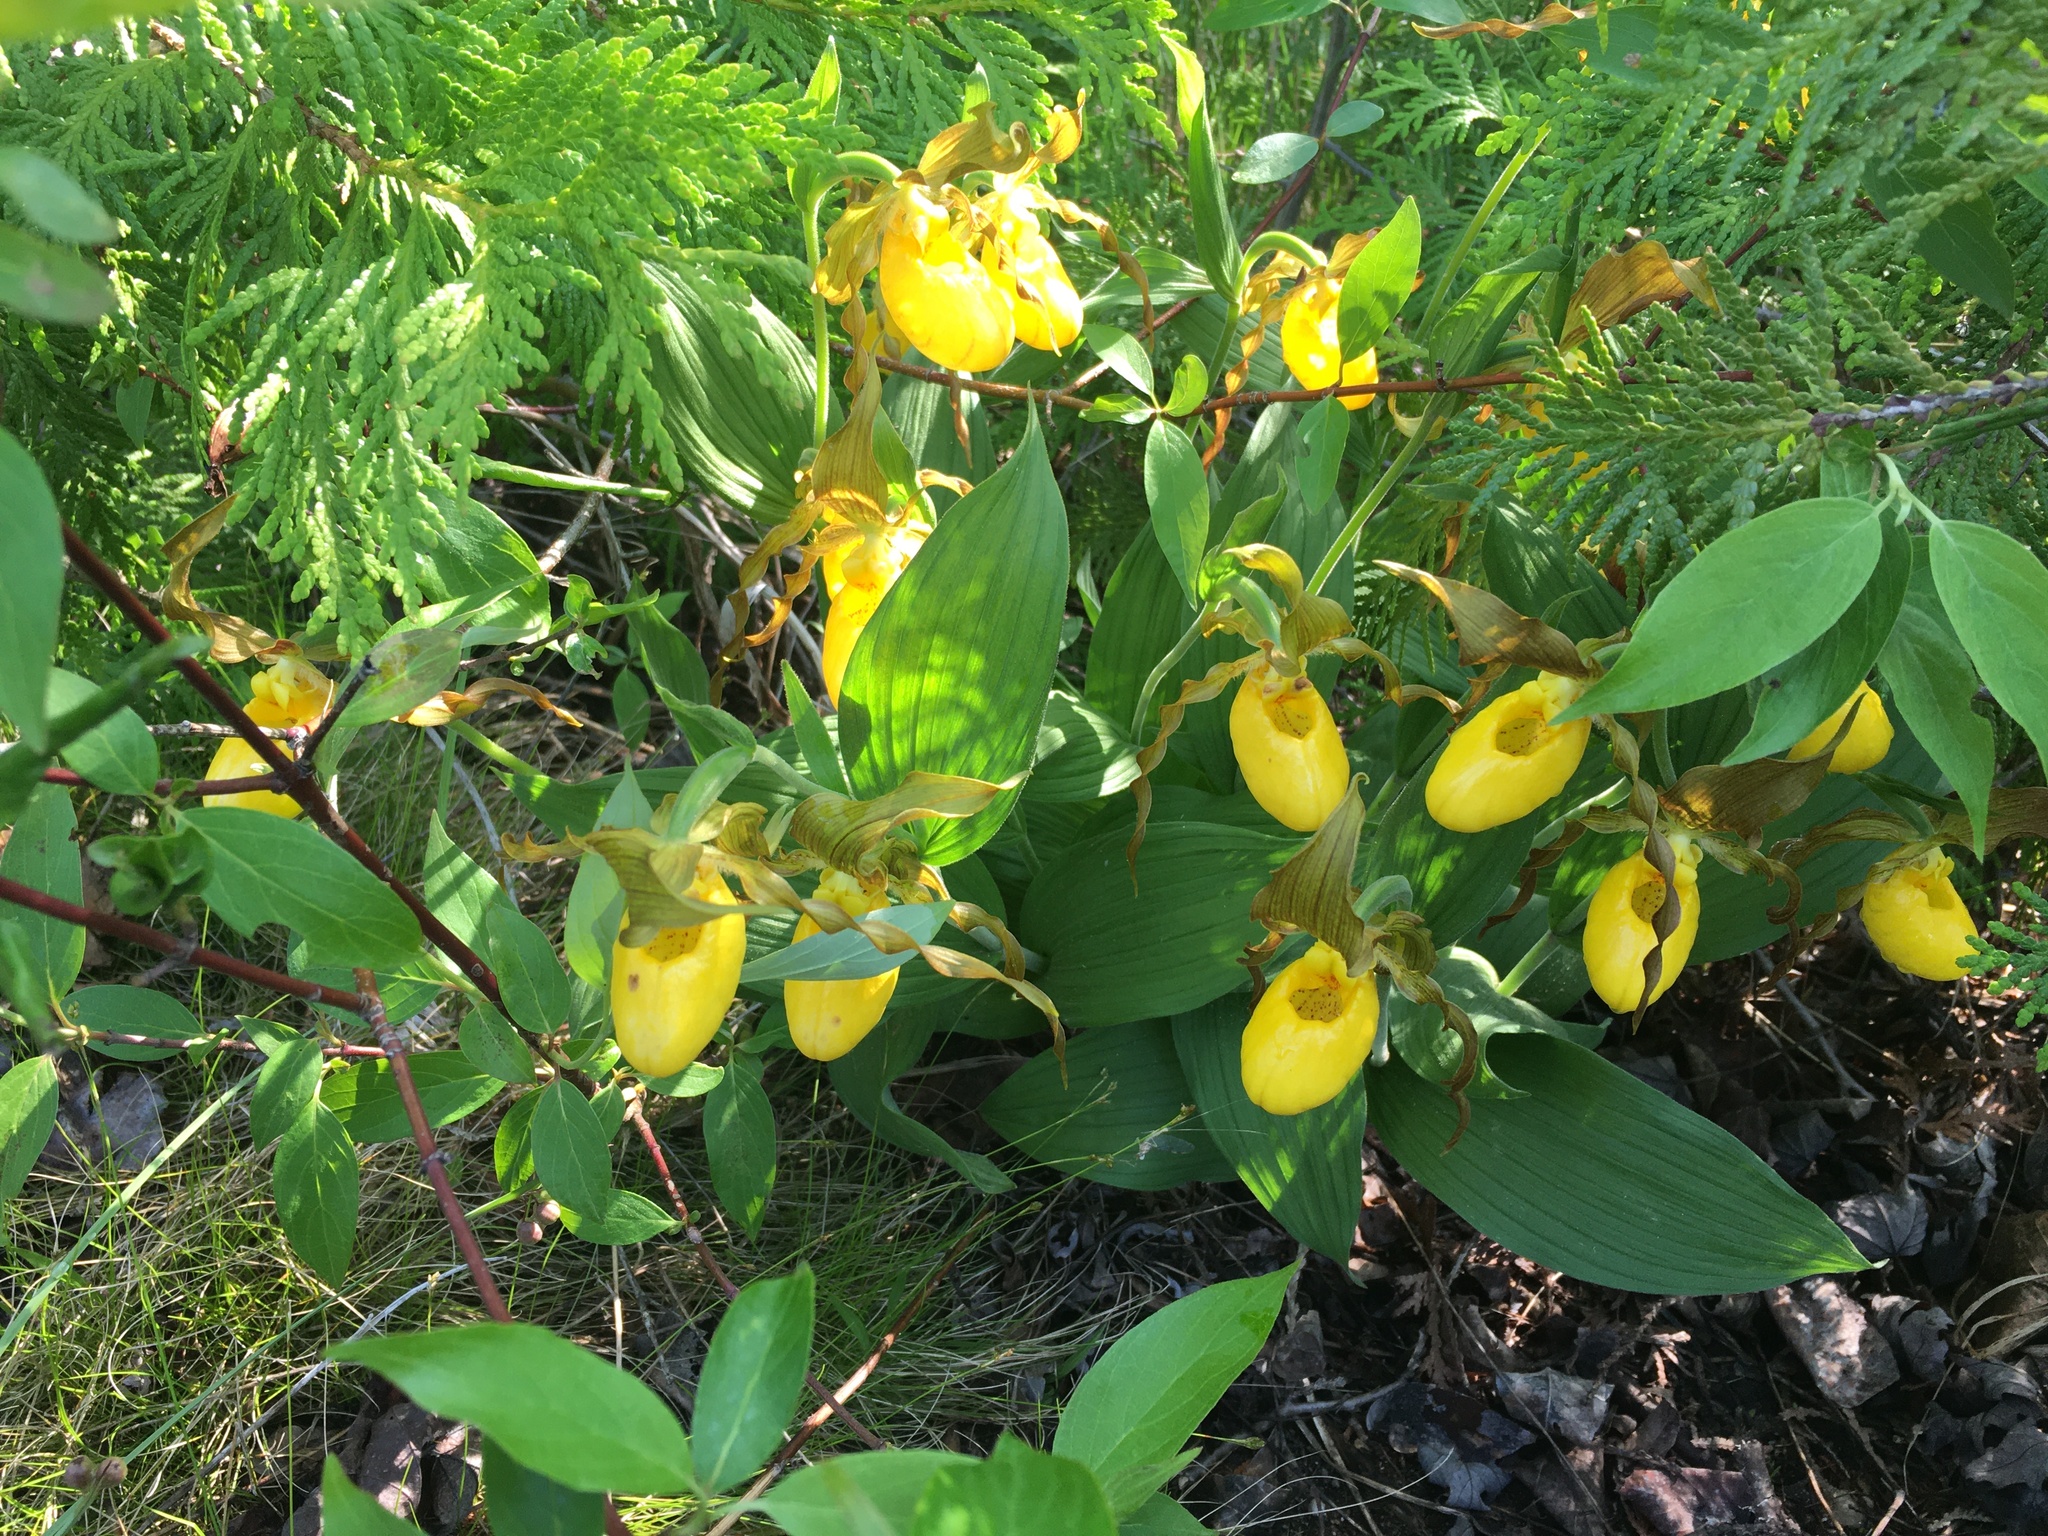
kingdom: Plantae
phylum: Tracheophyta
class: Liliopsida
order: Asparagales
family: Orchidaceae
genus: Cypripedium
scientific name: Cypripedium parviflorum
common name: American yellow lady's-slipper
